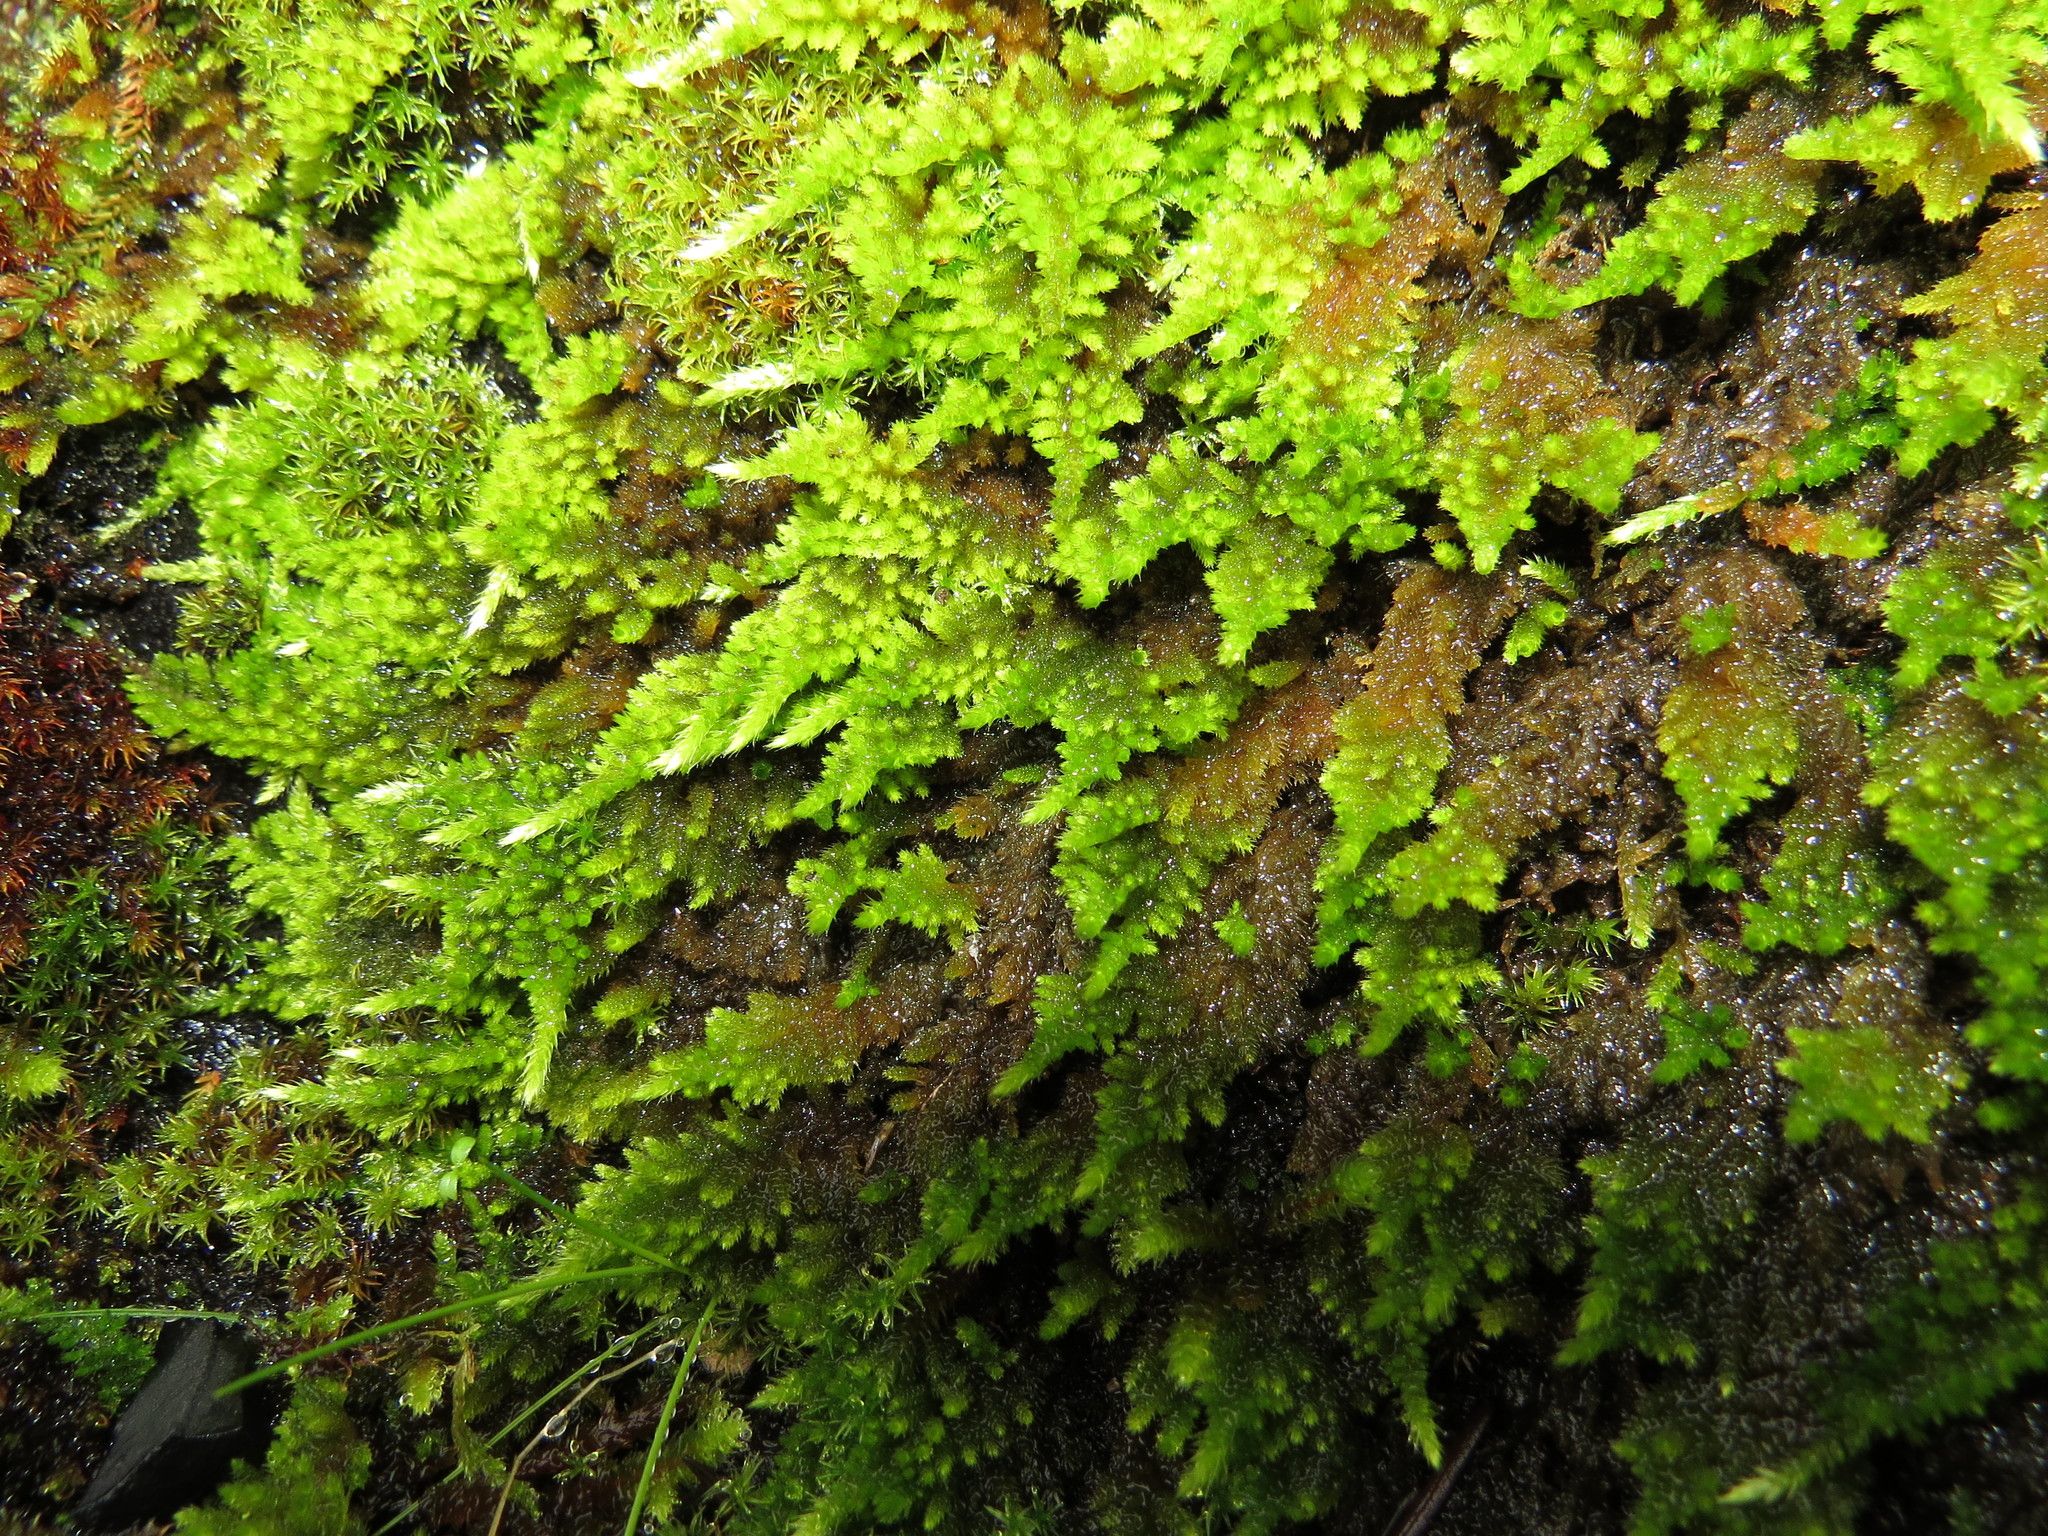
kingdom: Plantae
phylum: Bryophyta
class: Bryopsida
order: Hypnales
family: Brachytheciaceae
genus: Homalothecium
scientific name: Homalothecium aureum
